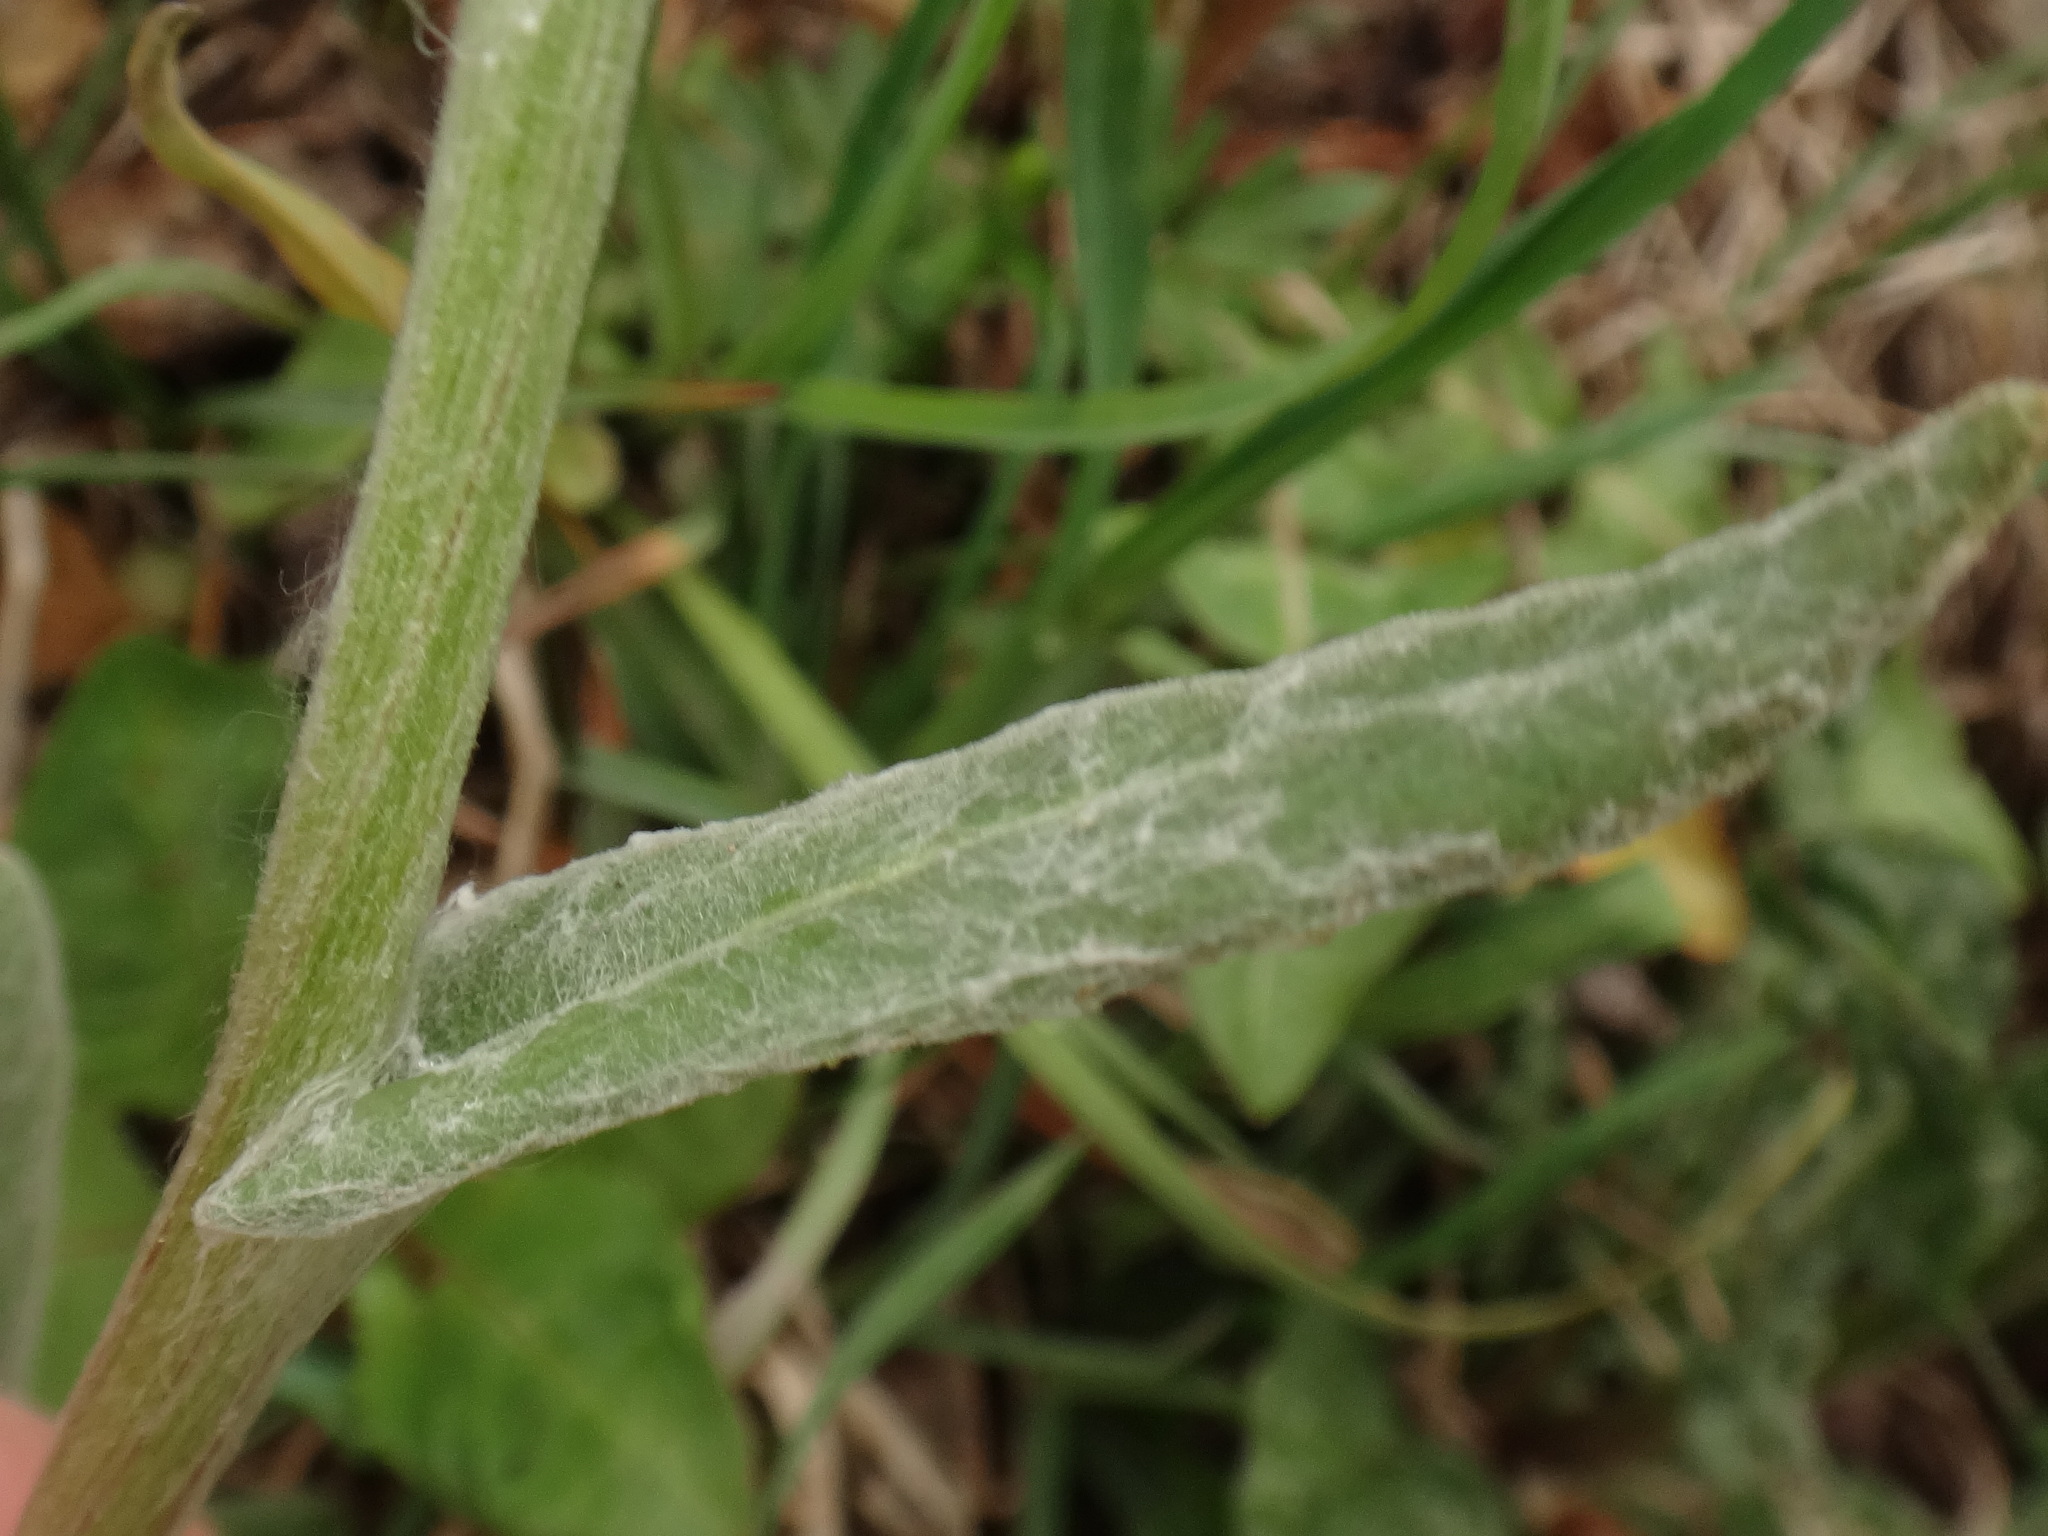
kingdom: Plantae
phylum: Tracheophyta
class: Magnoliopsida
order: Asterales
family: Asteraceae
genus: Tephroseris
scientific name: Tephroseris longifolia
